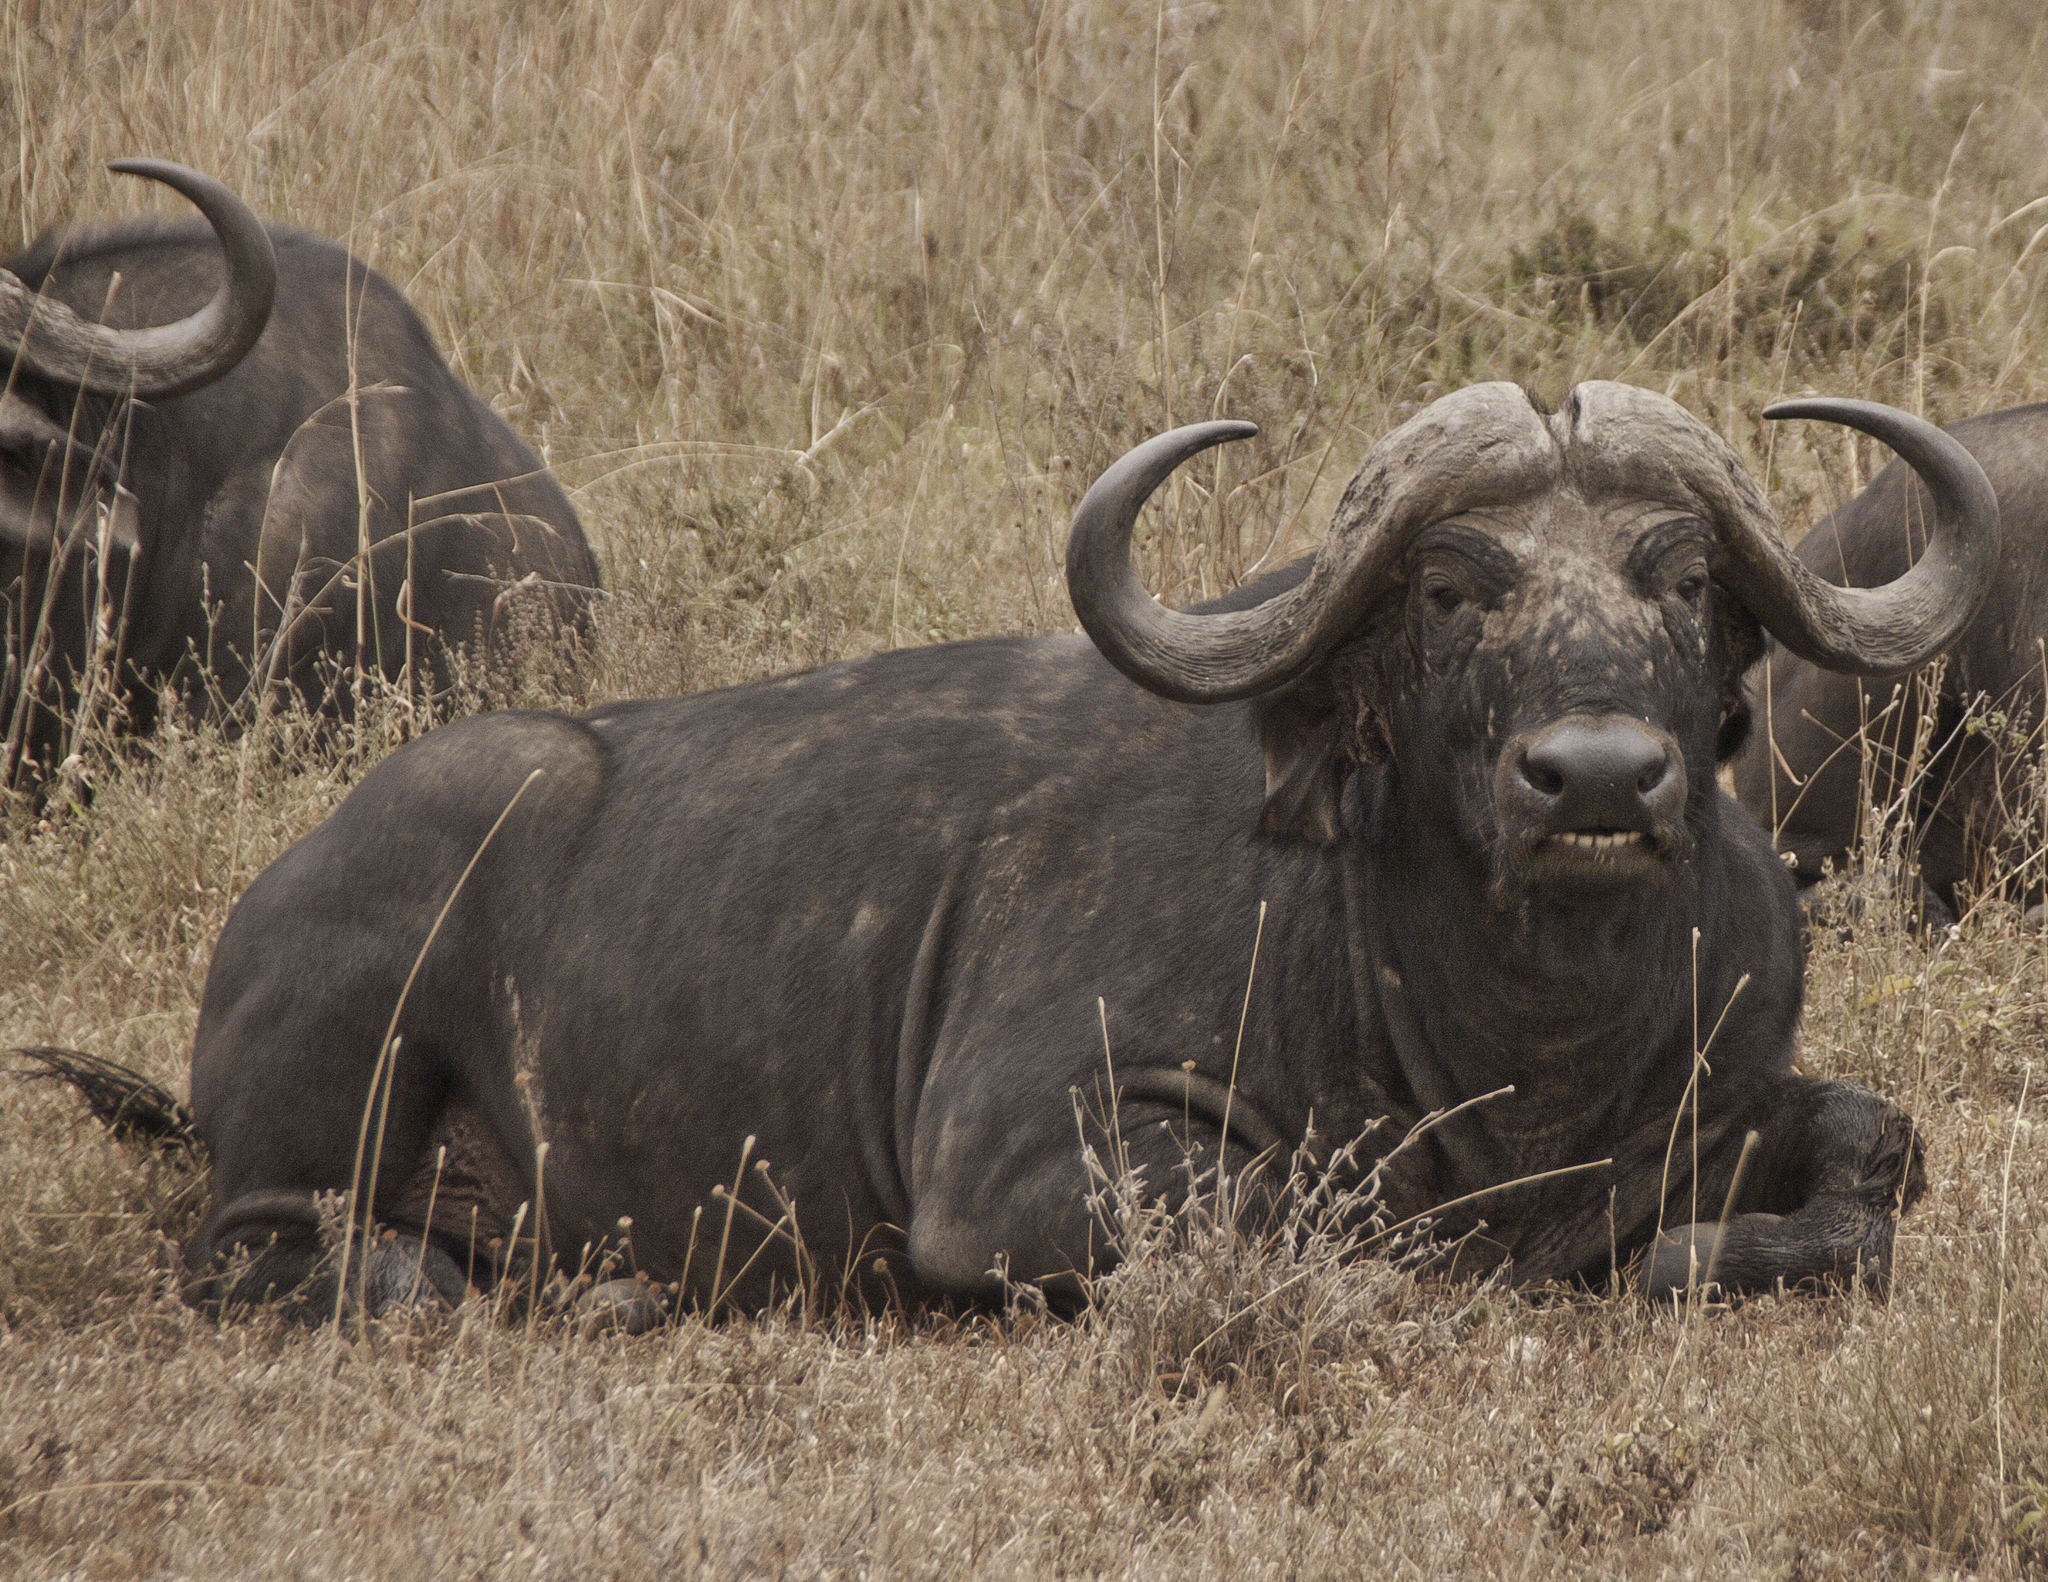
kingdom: Animalia
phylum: Chordata
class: Mammalia
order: Artiodactyla
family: Bovidae
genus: Syncerus
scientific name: Syncerus caffer
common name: African buffalo
